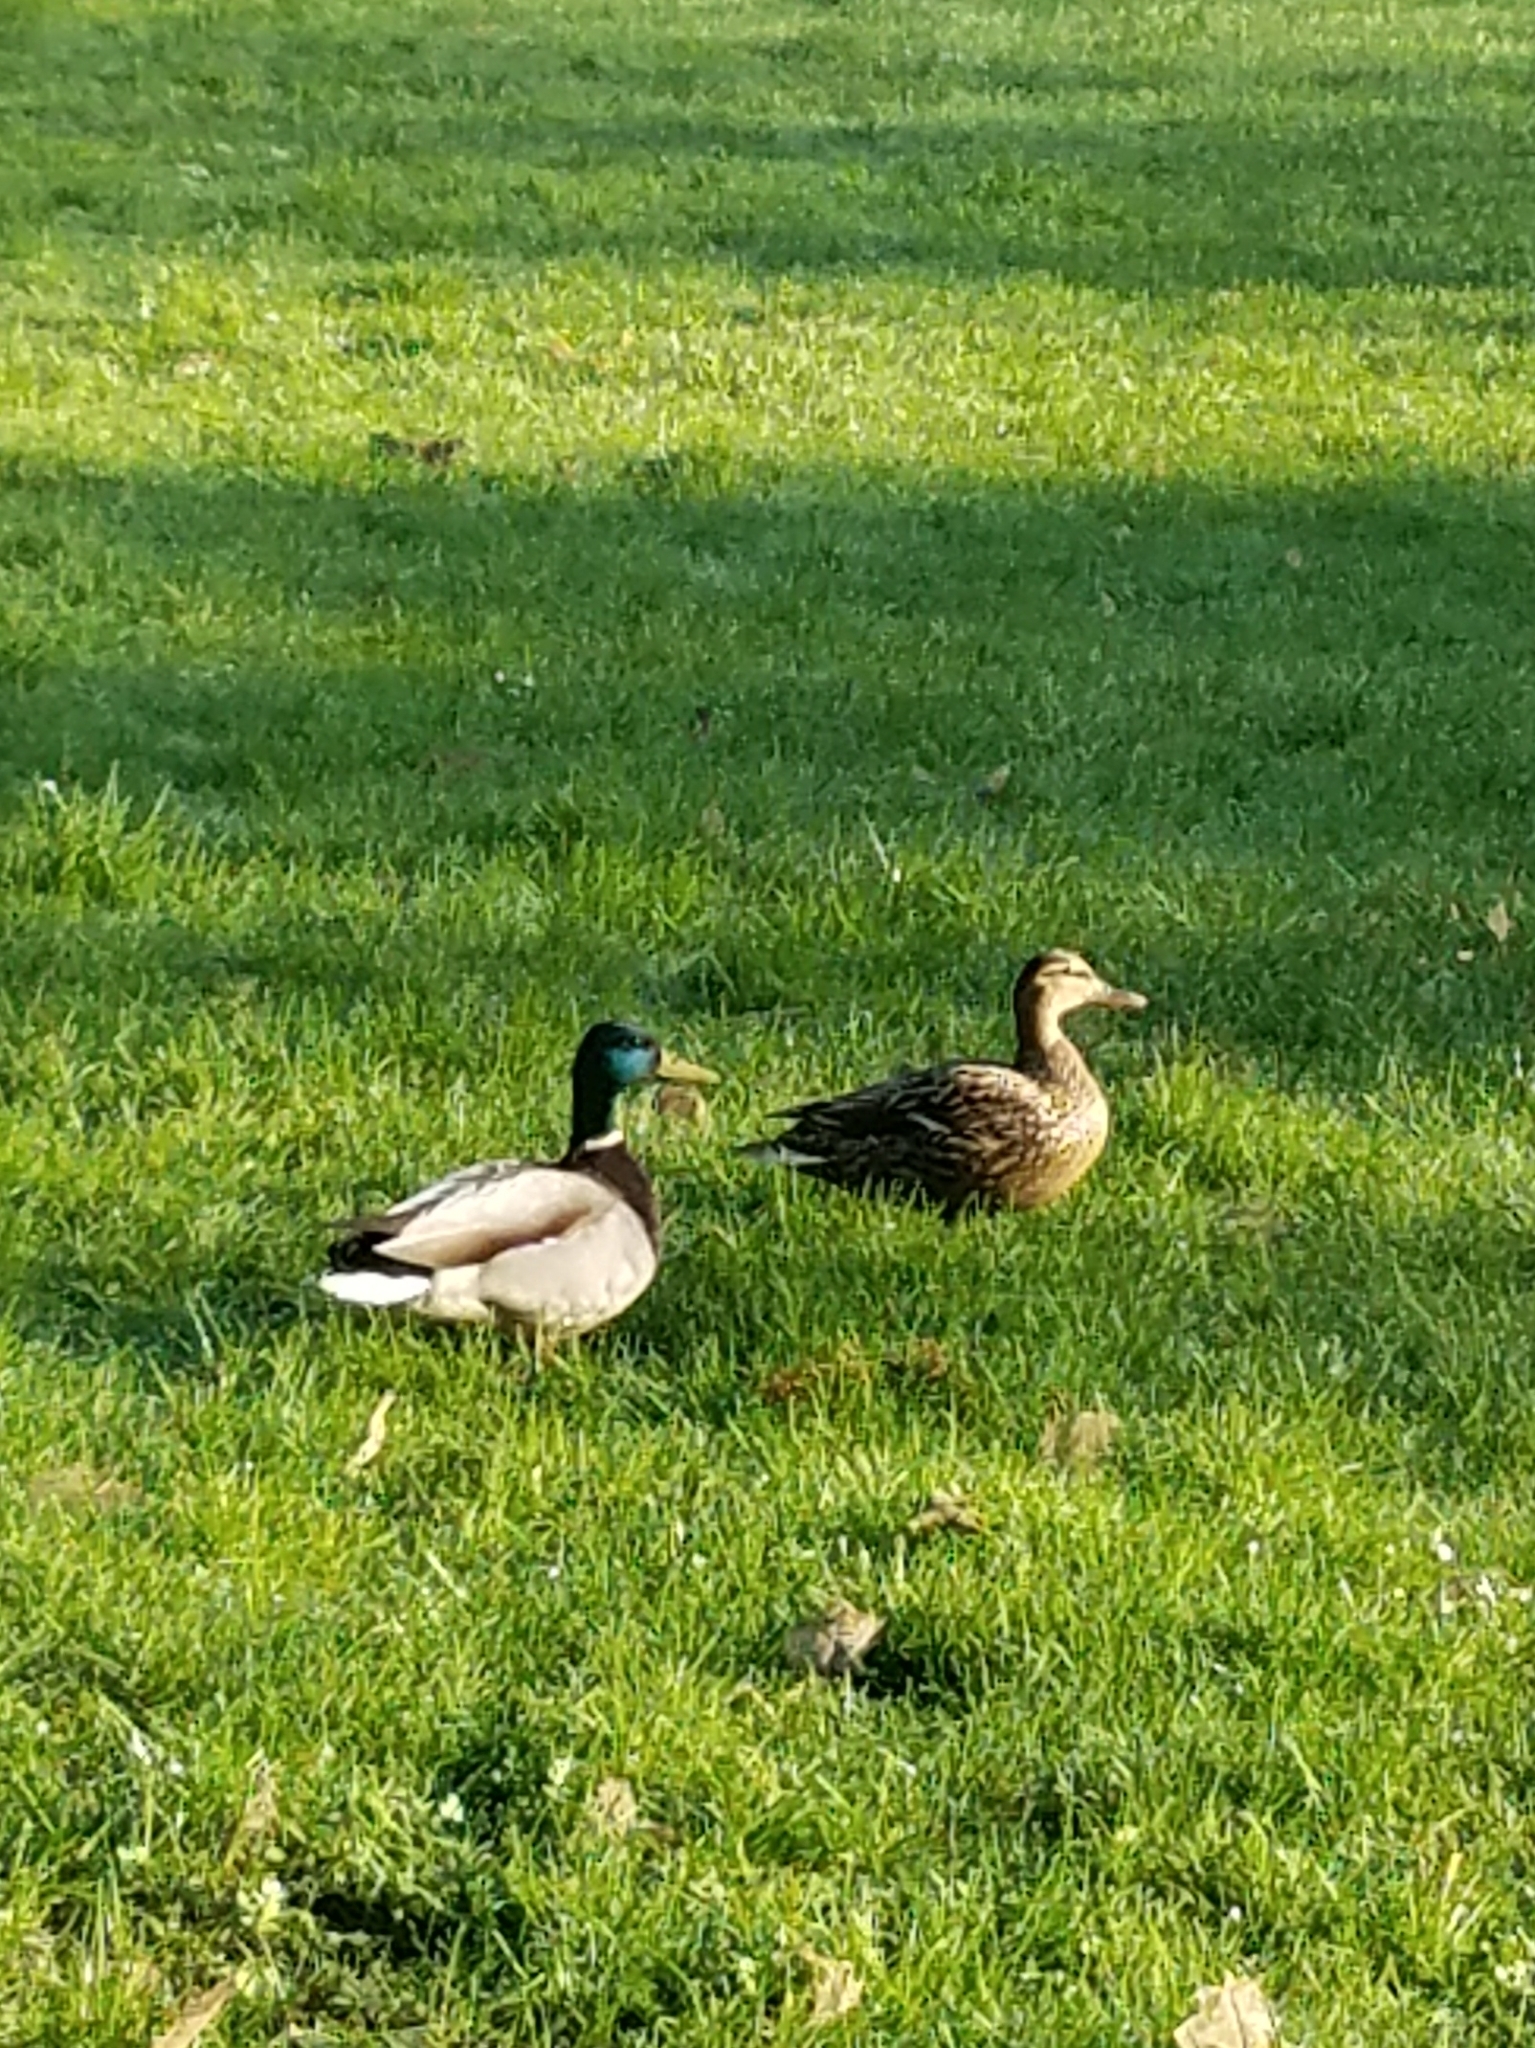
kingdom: Animalia
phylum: Chordata
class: Aves
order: Anseriformes
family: Anatidae
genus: Anas
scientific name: Anas platyrhynchos
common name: Mallard
